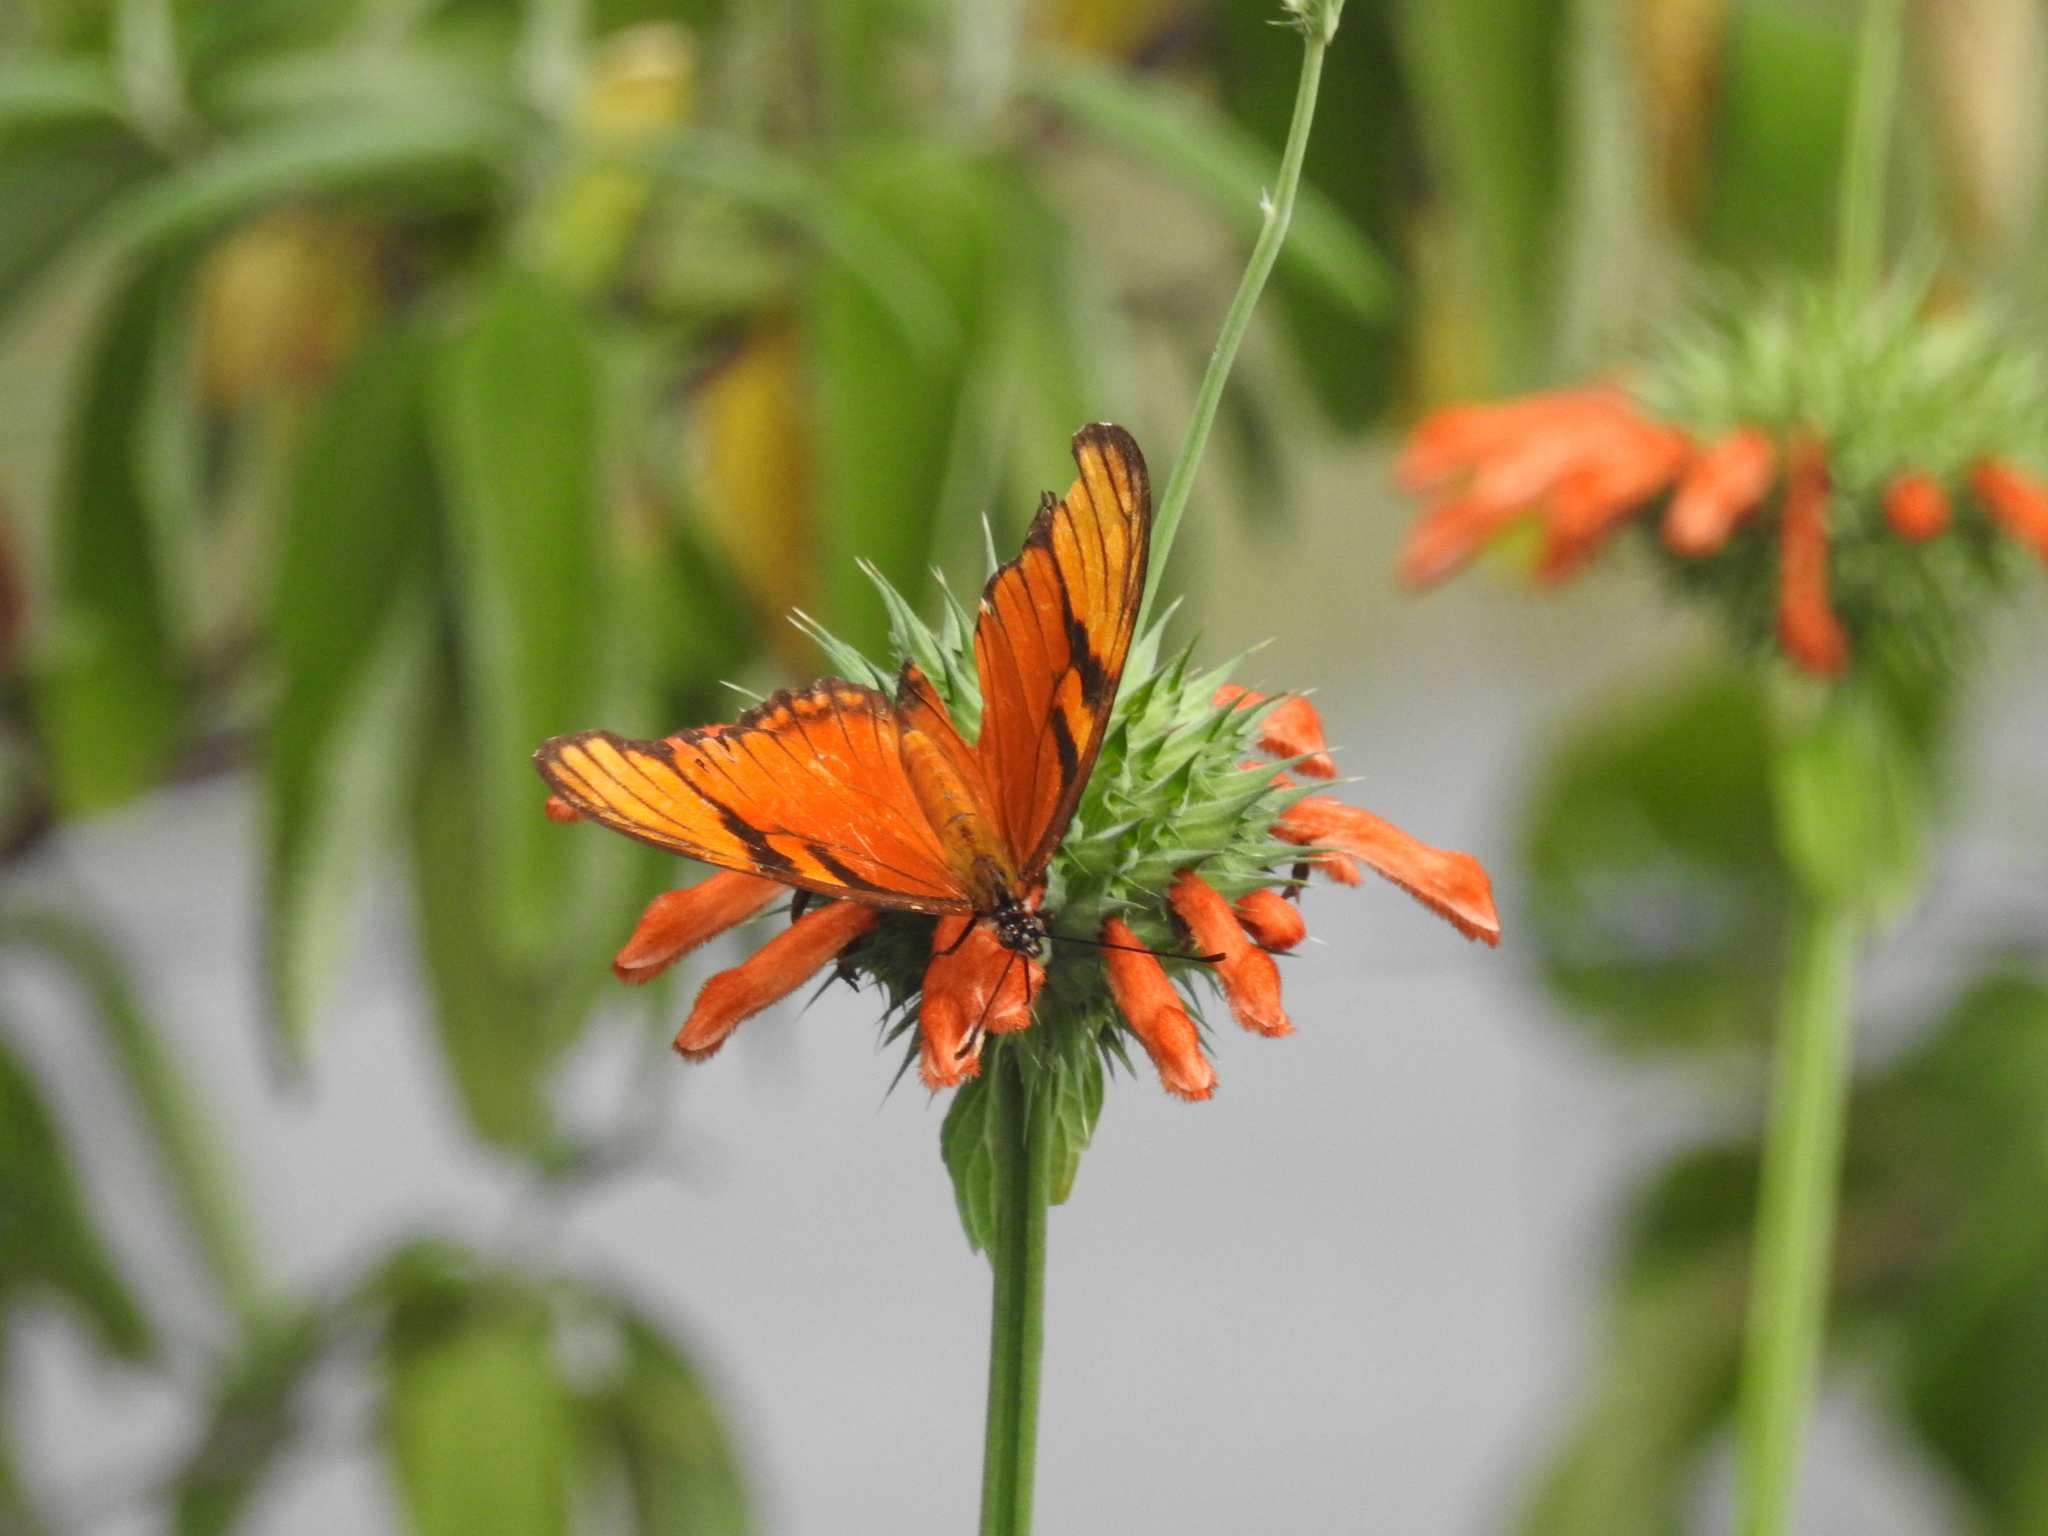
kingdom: Animalia
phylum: Arthropoda
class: Insecta
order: Lepidoptera
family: Nymphalidae
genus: Dione
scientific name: Dione juno
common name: Juno silverspot
